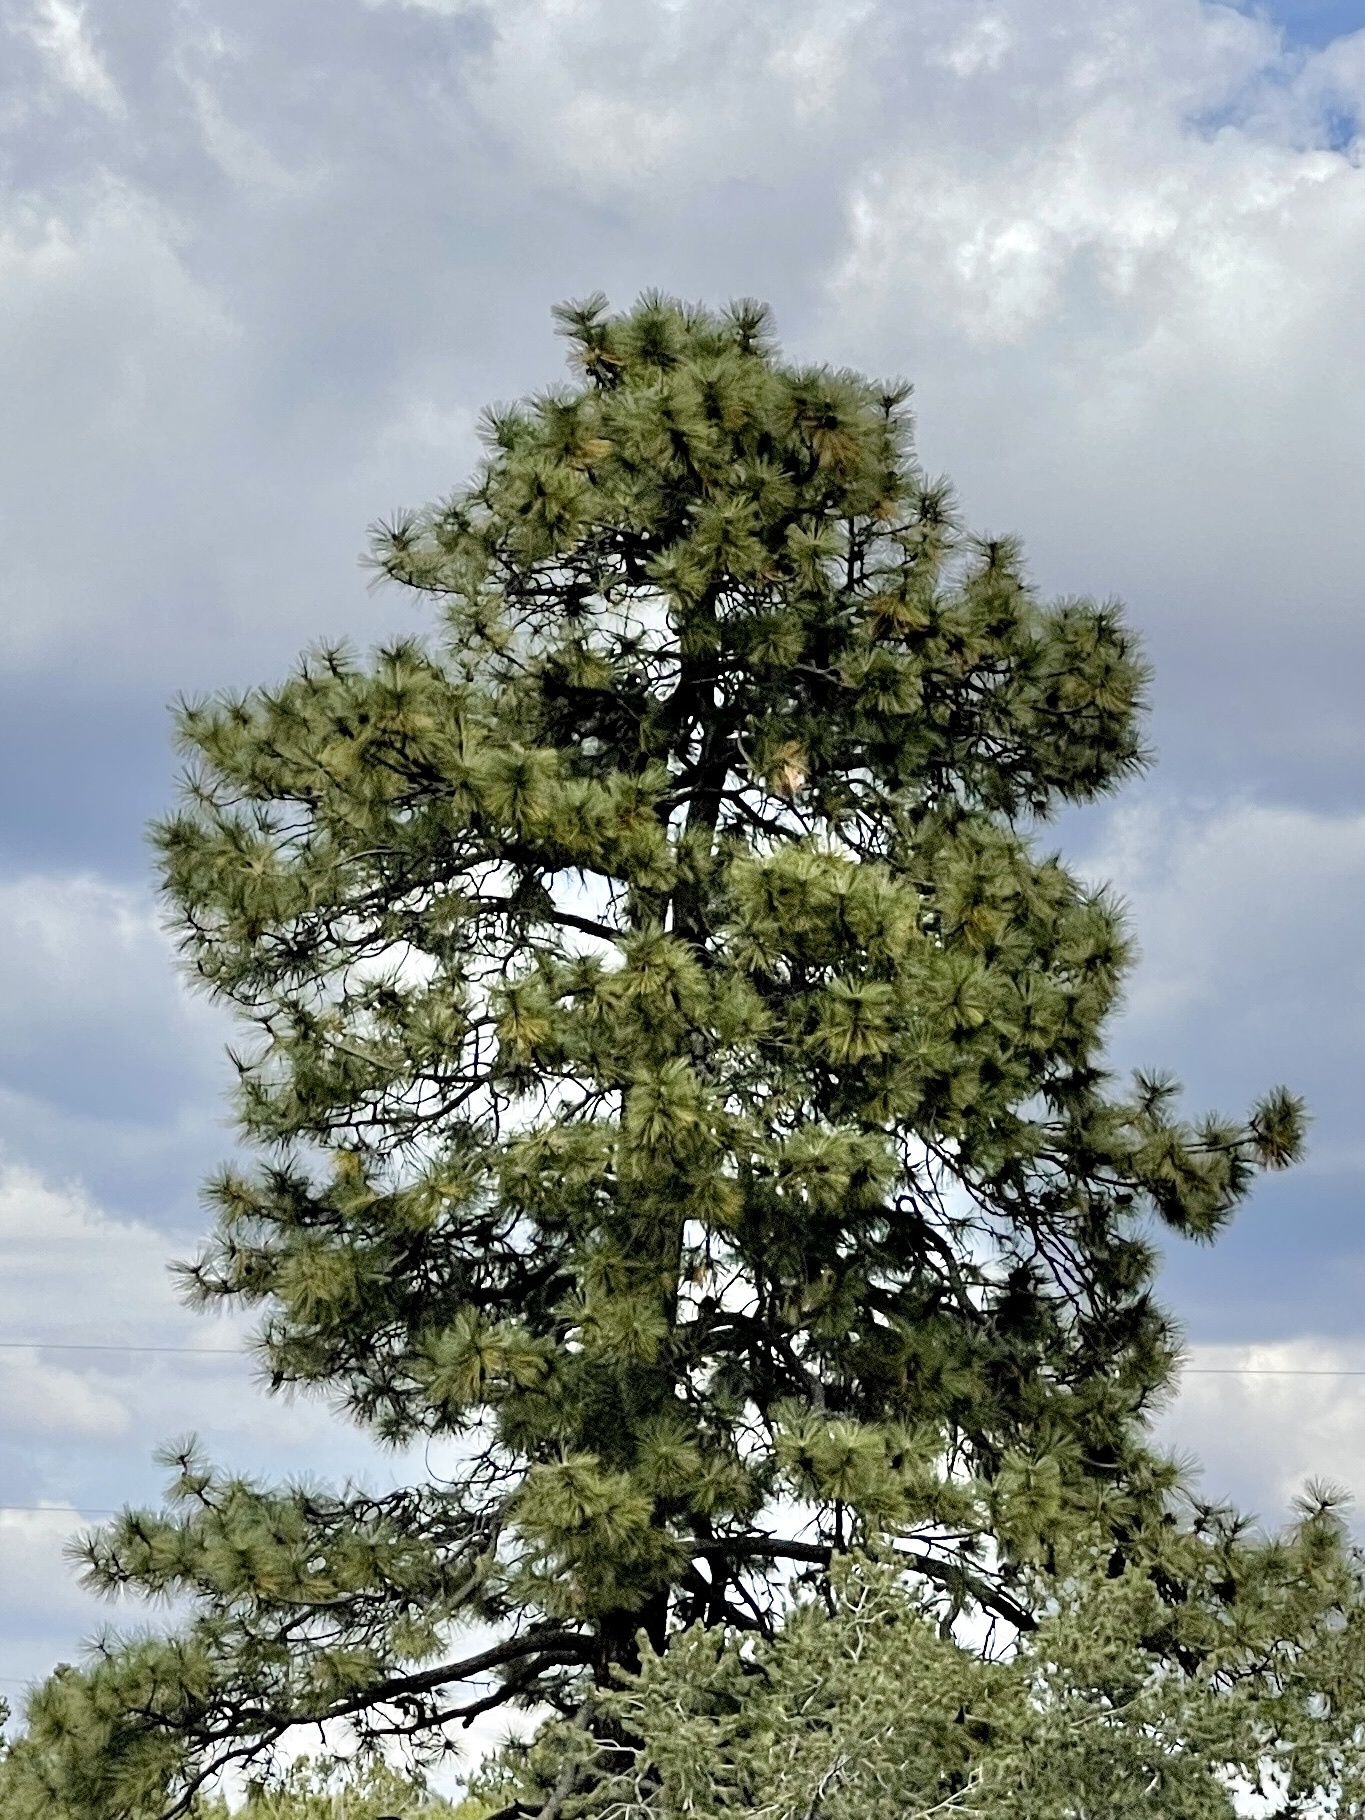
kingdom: Plantae
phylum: Tracheophyta
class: Pinopsida
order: Pinales
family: Pinaceae
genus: Pinus
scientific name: Pinus ponderosa
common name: Western yellow-pine
